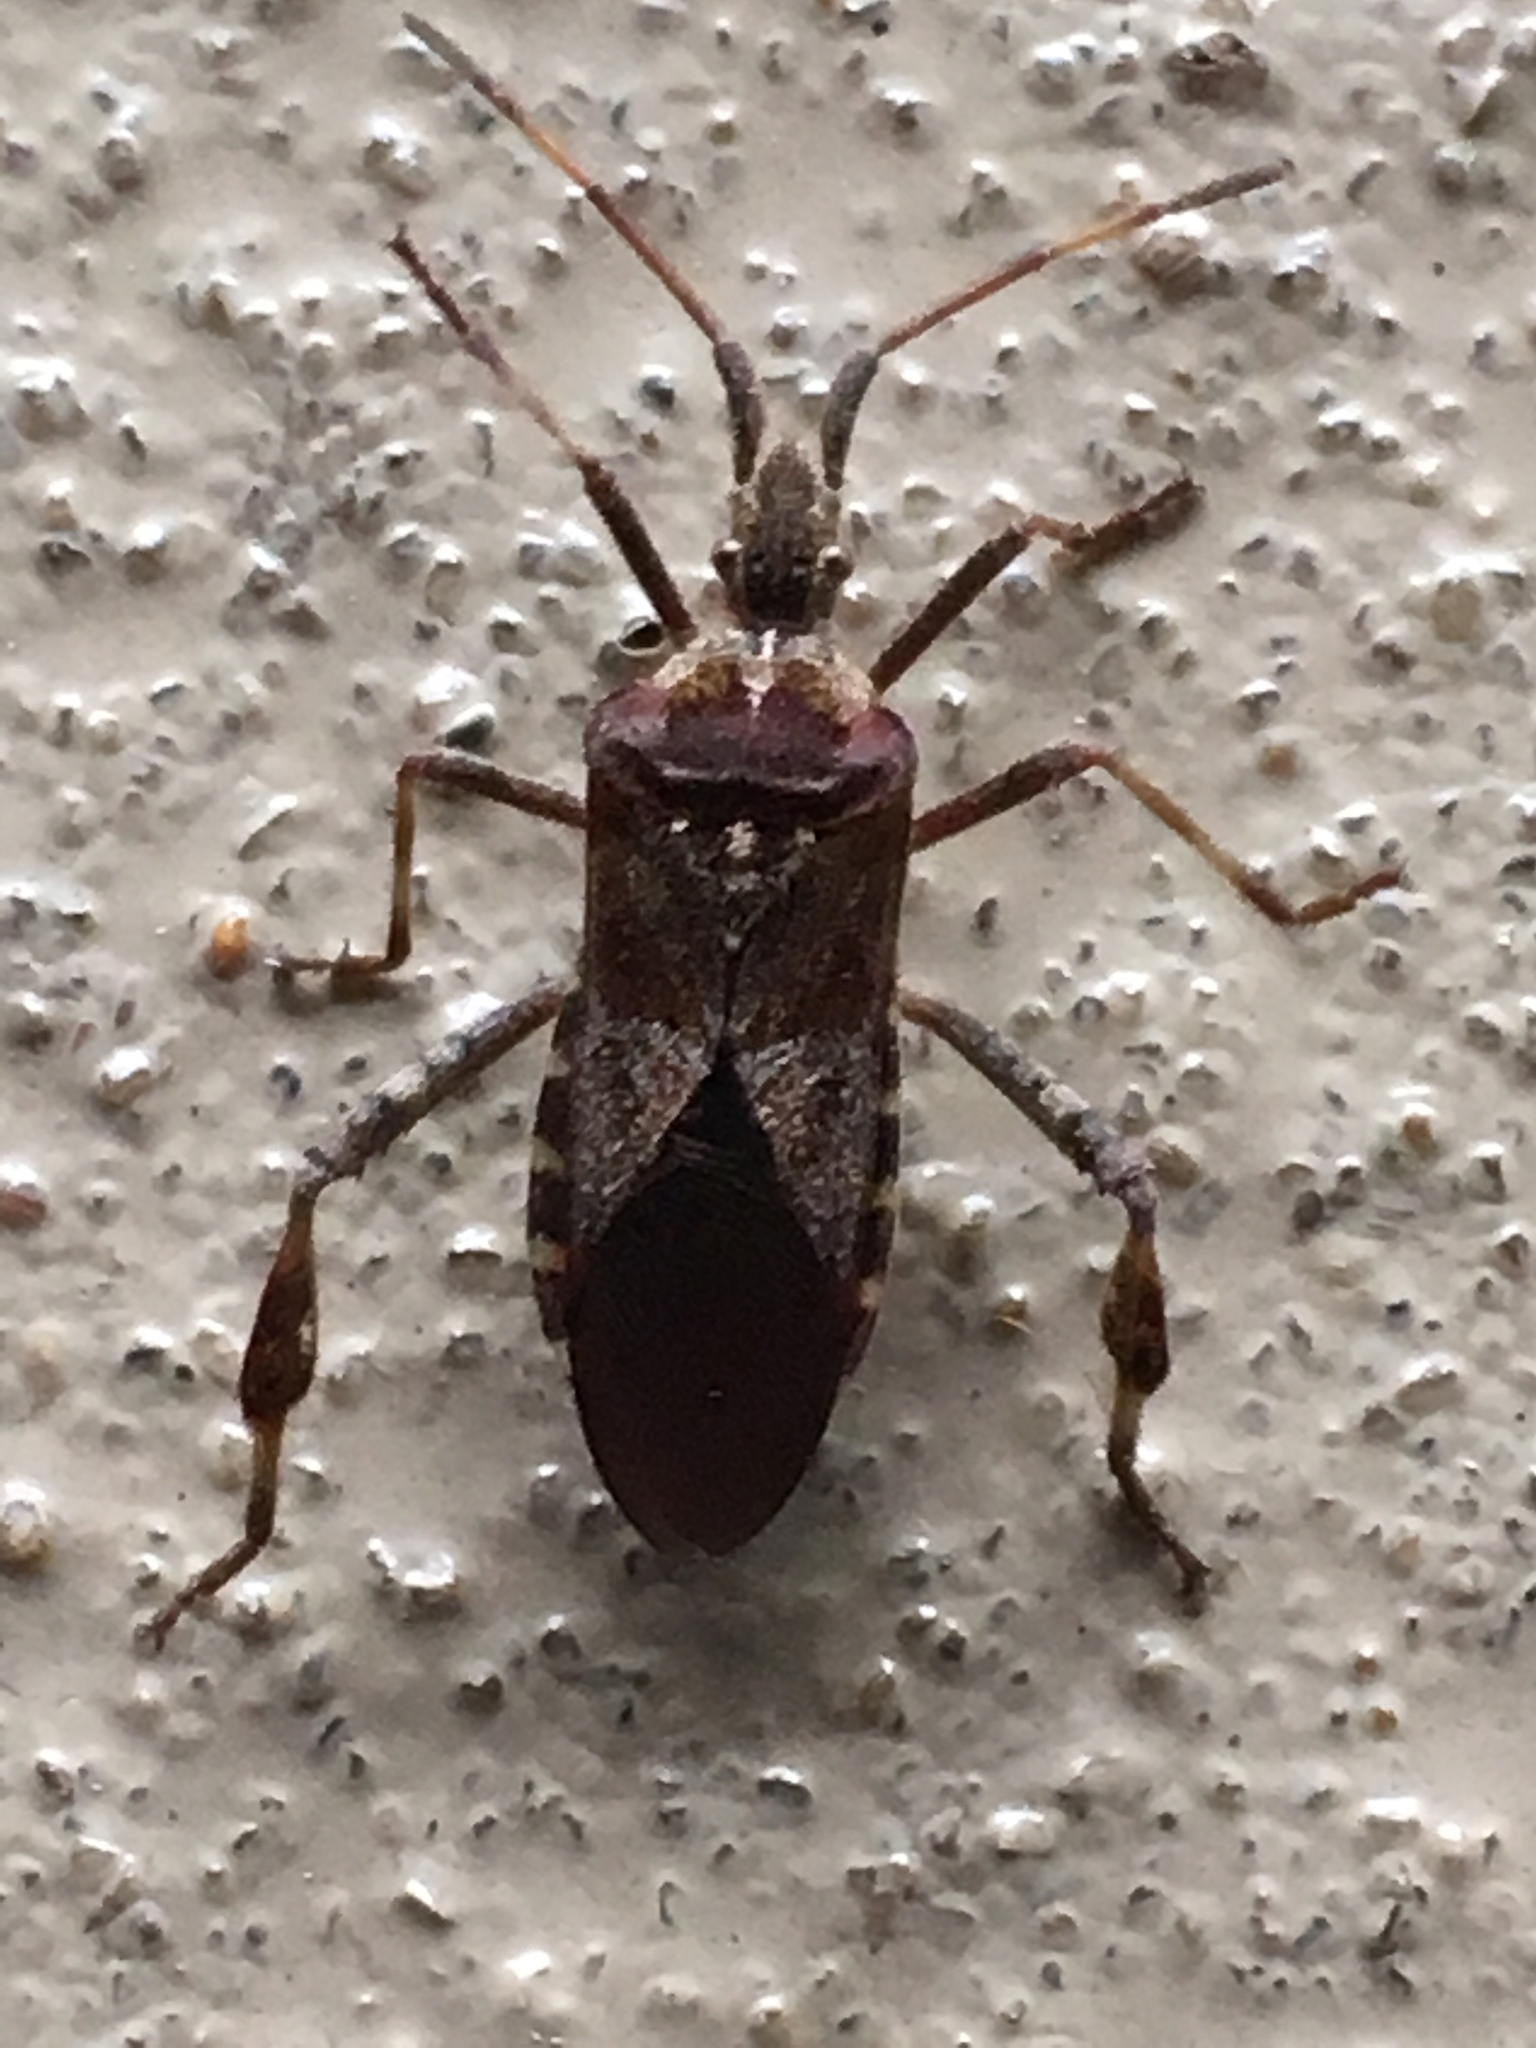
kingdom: Animalia
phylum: Arthropoda
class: Insecta
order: Hemiptera
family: Coreidae
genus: Leptoglossus
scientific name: Leptoglossus occidentalis
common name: Western conifer-seed bug
